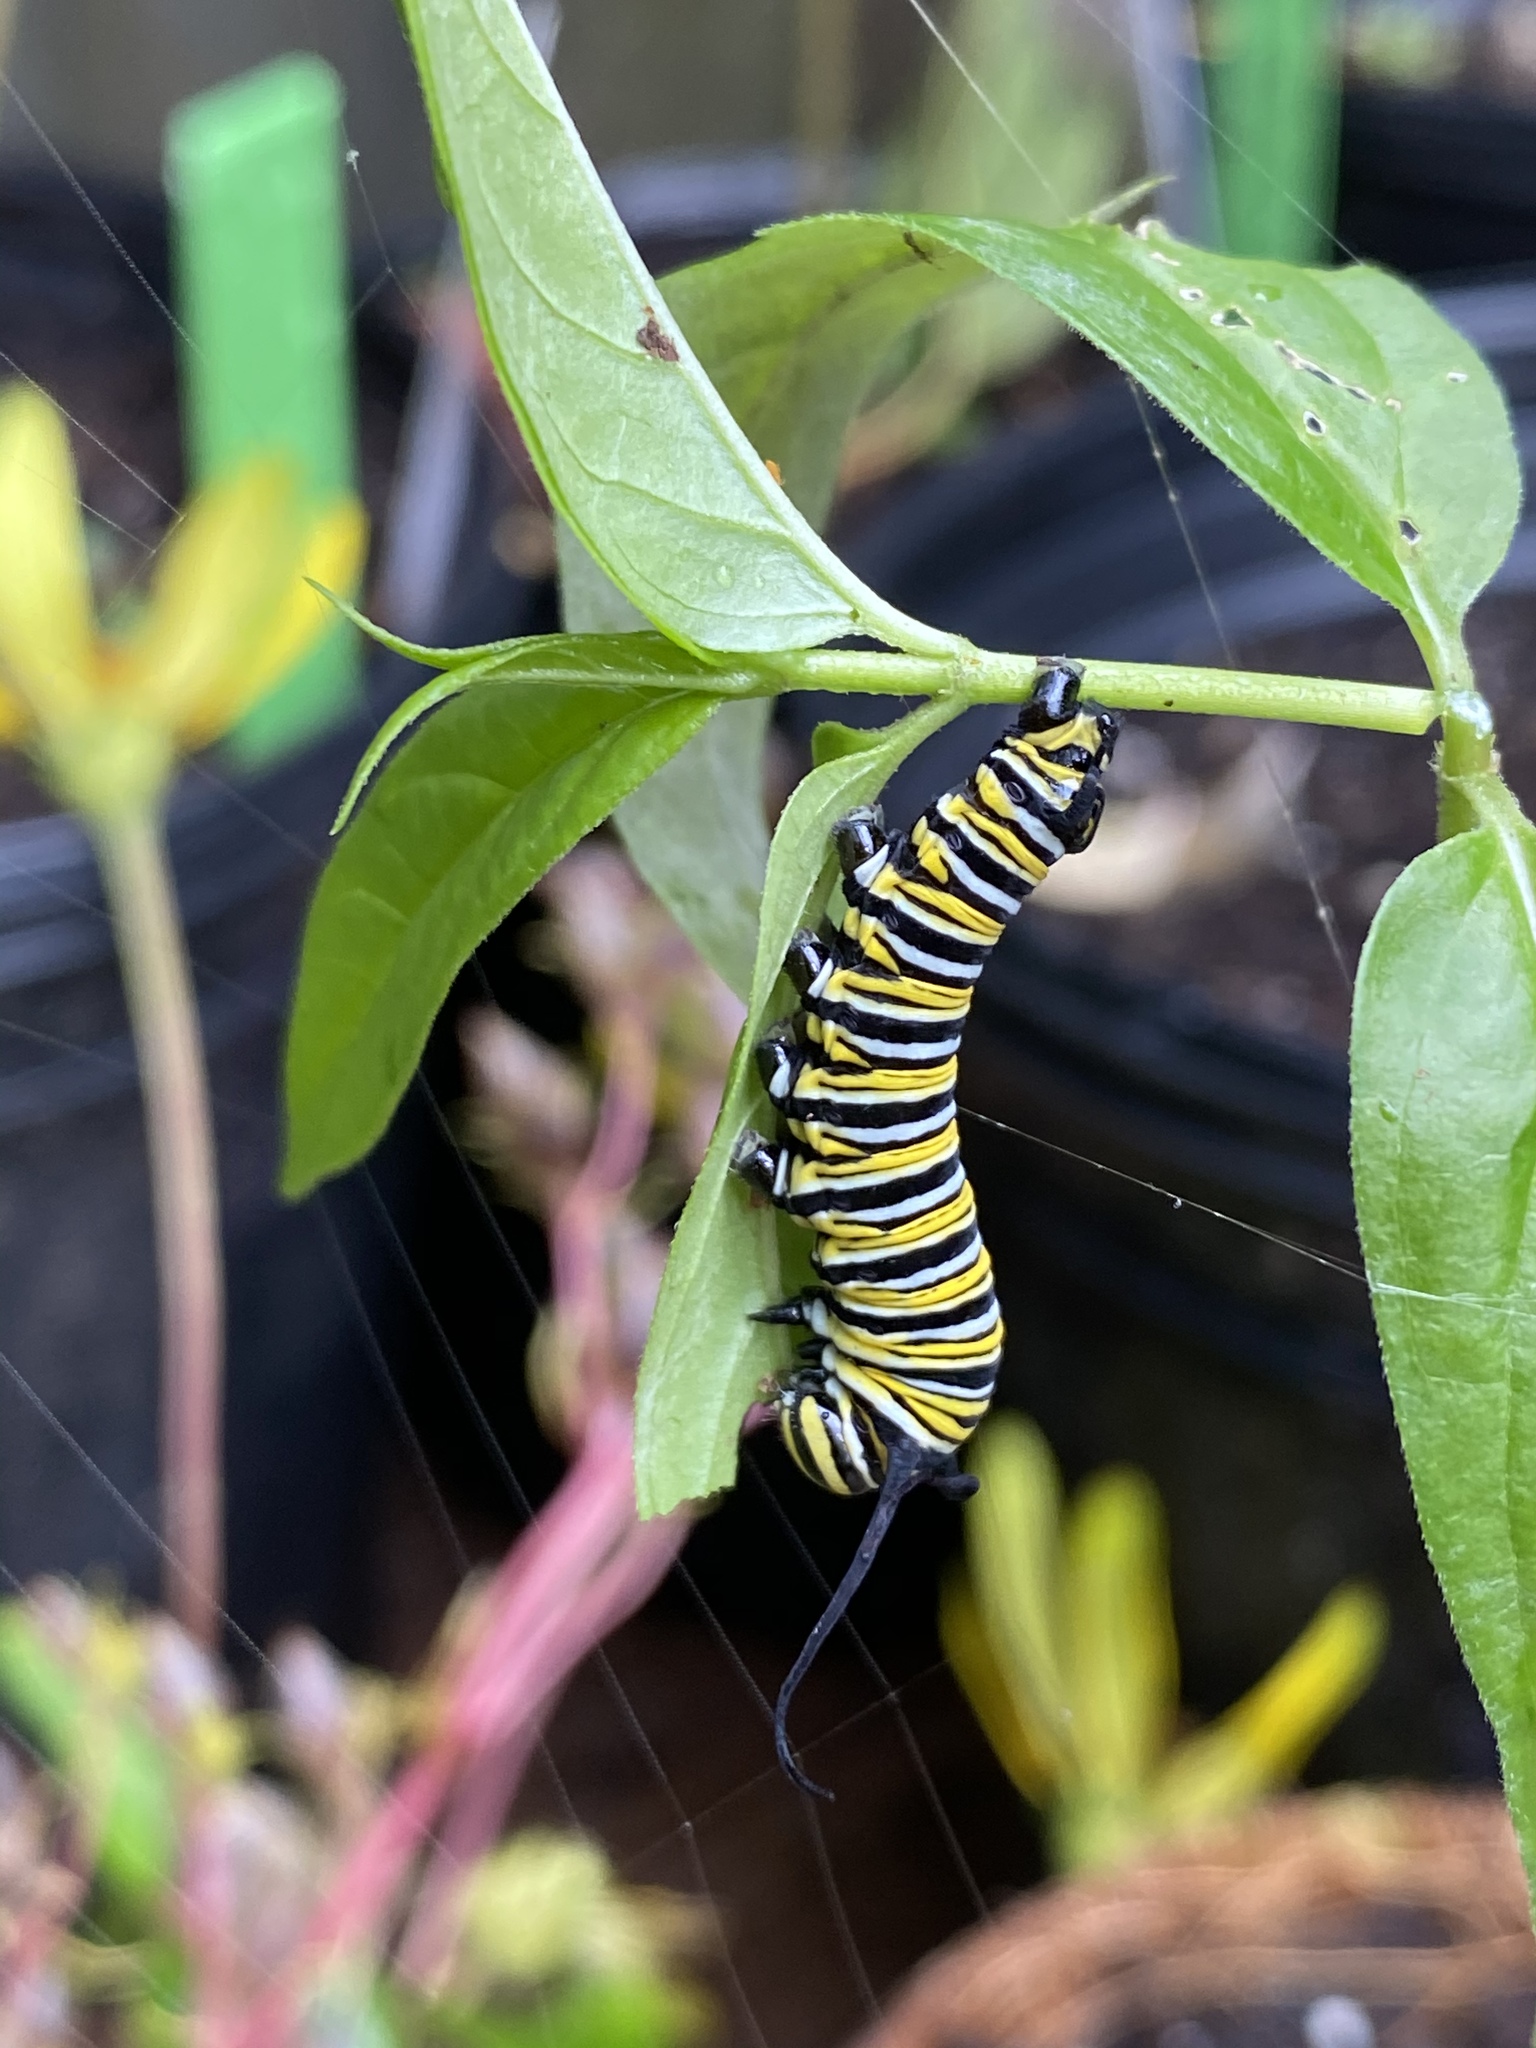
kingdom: Animalia
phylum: Arthropoda
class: Insecta
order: Lepidoptera
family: Nymphalidae
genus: Danaus
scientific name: Danaus plexippus
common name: Monarch
